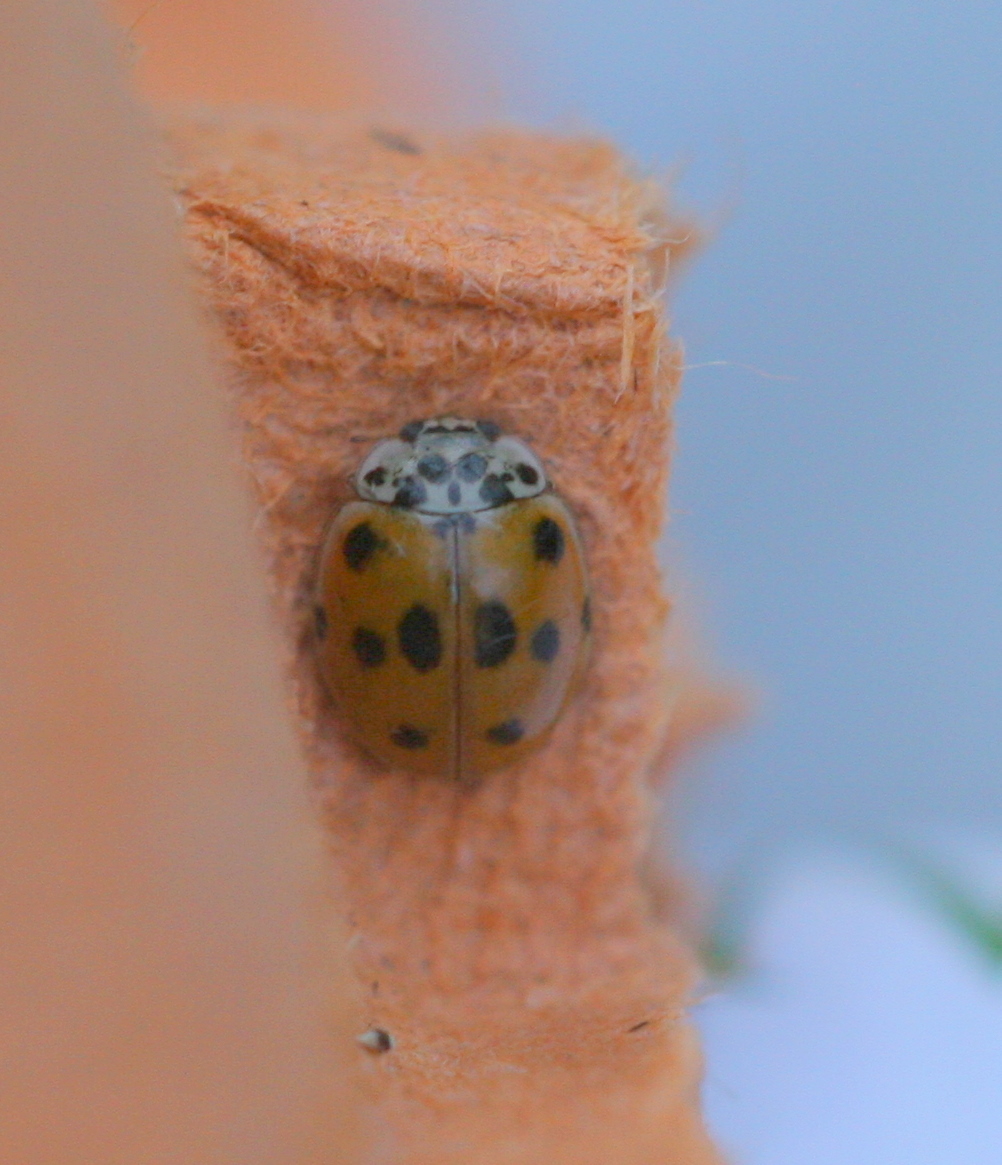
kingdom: Animalia
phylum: Arthropoda
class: Insecta
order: Coleoptera
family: Coccinellidae
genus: Adalia
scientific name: Adalia decempunctata
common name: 10-spot ladybird
